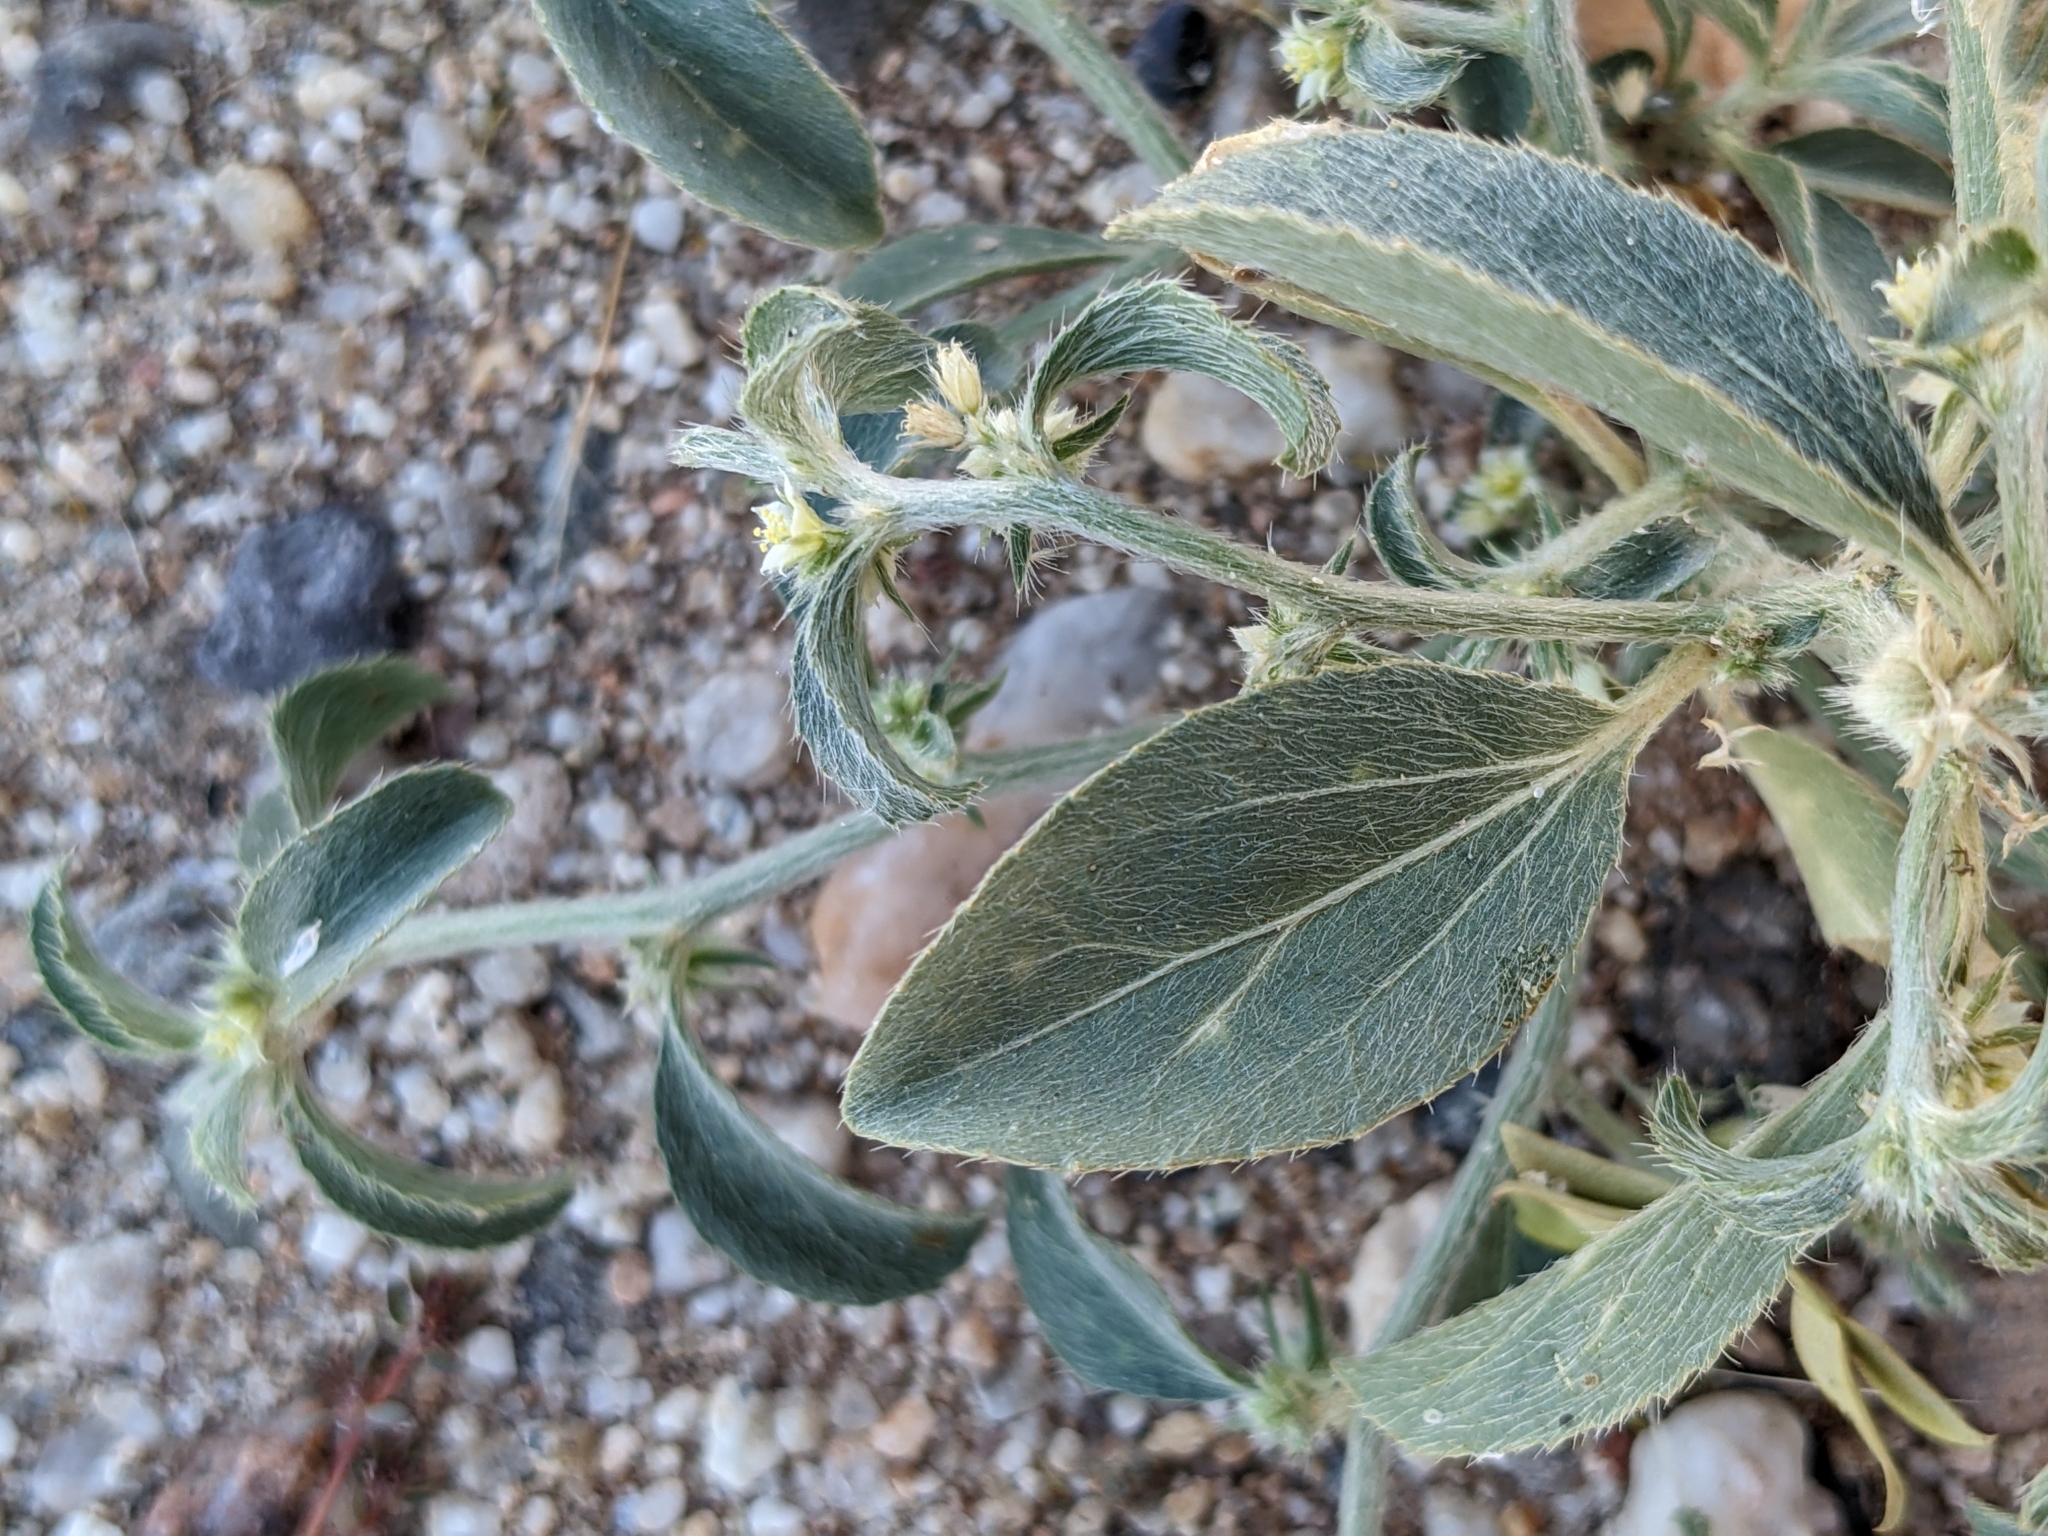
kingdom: Plantae
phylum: Tracheophyta
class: Magnoliopsida
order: Malpighiales
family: Euphorbiaceae
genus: Ditaxis
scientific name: Ditaxis serrata
